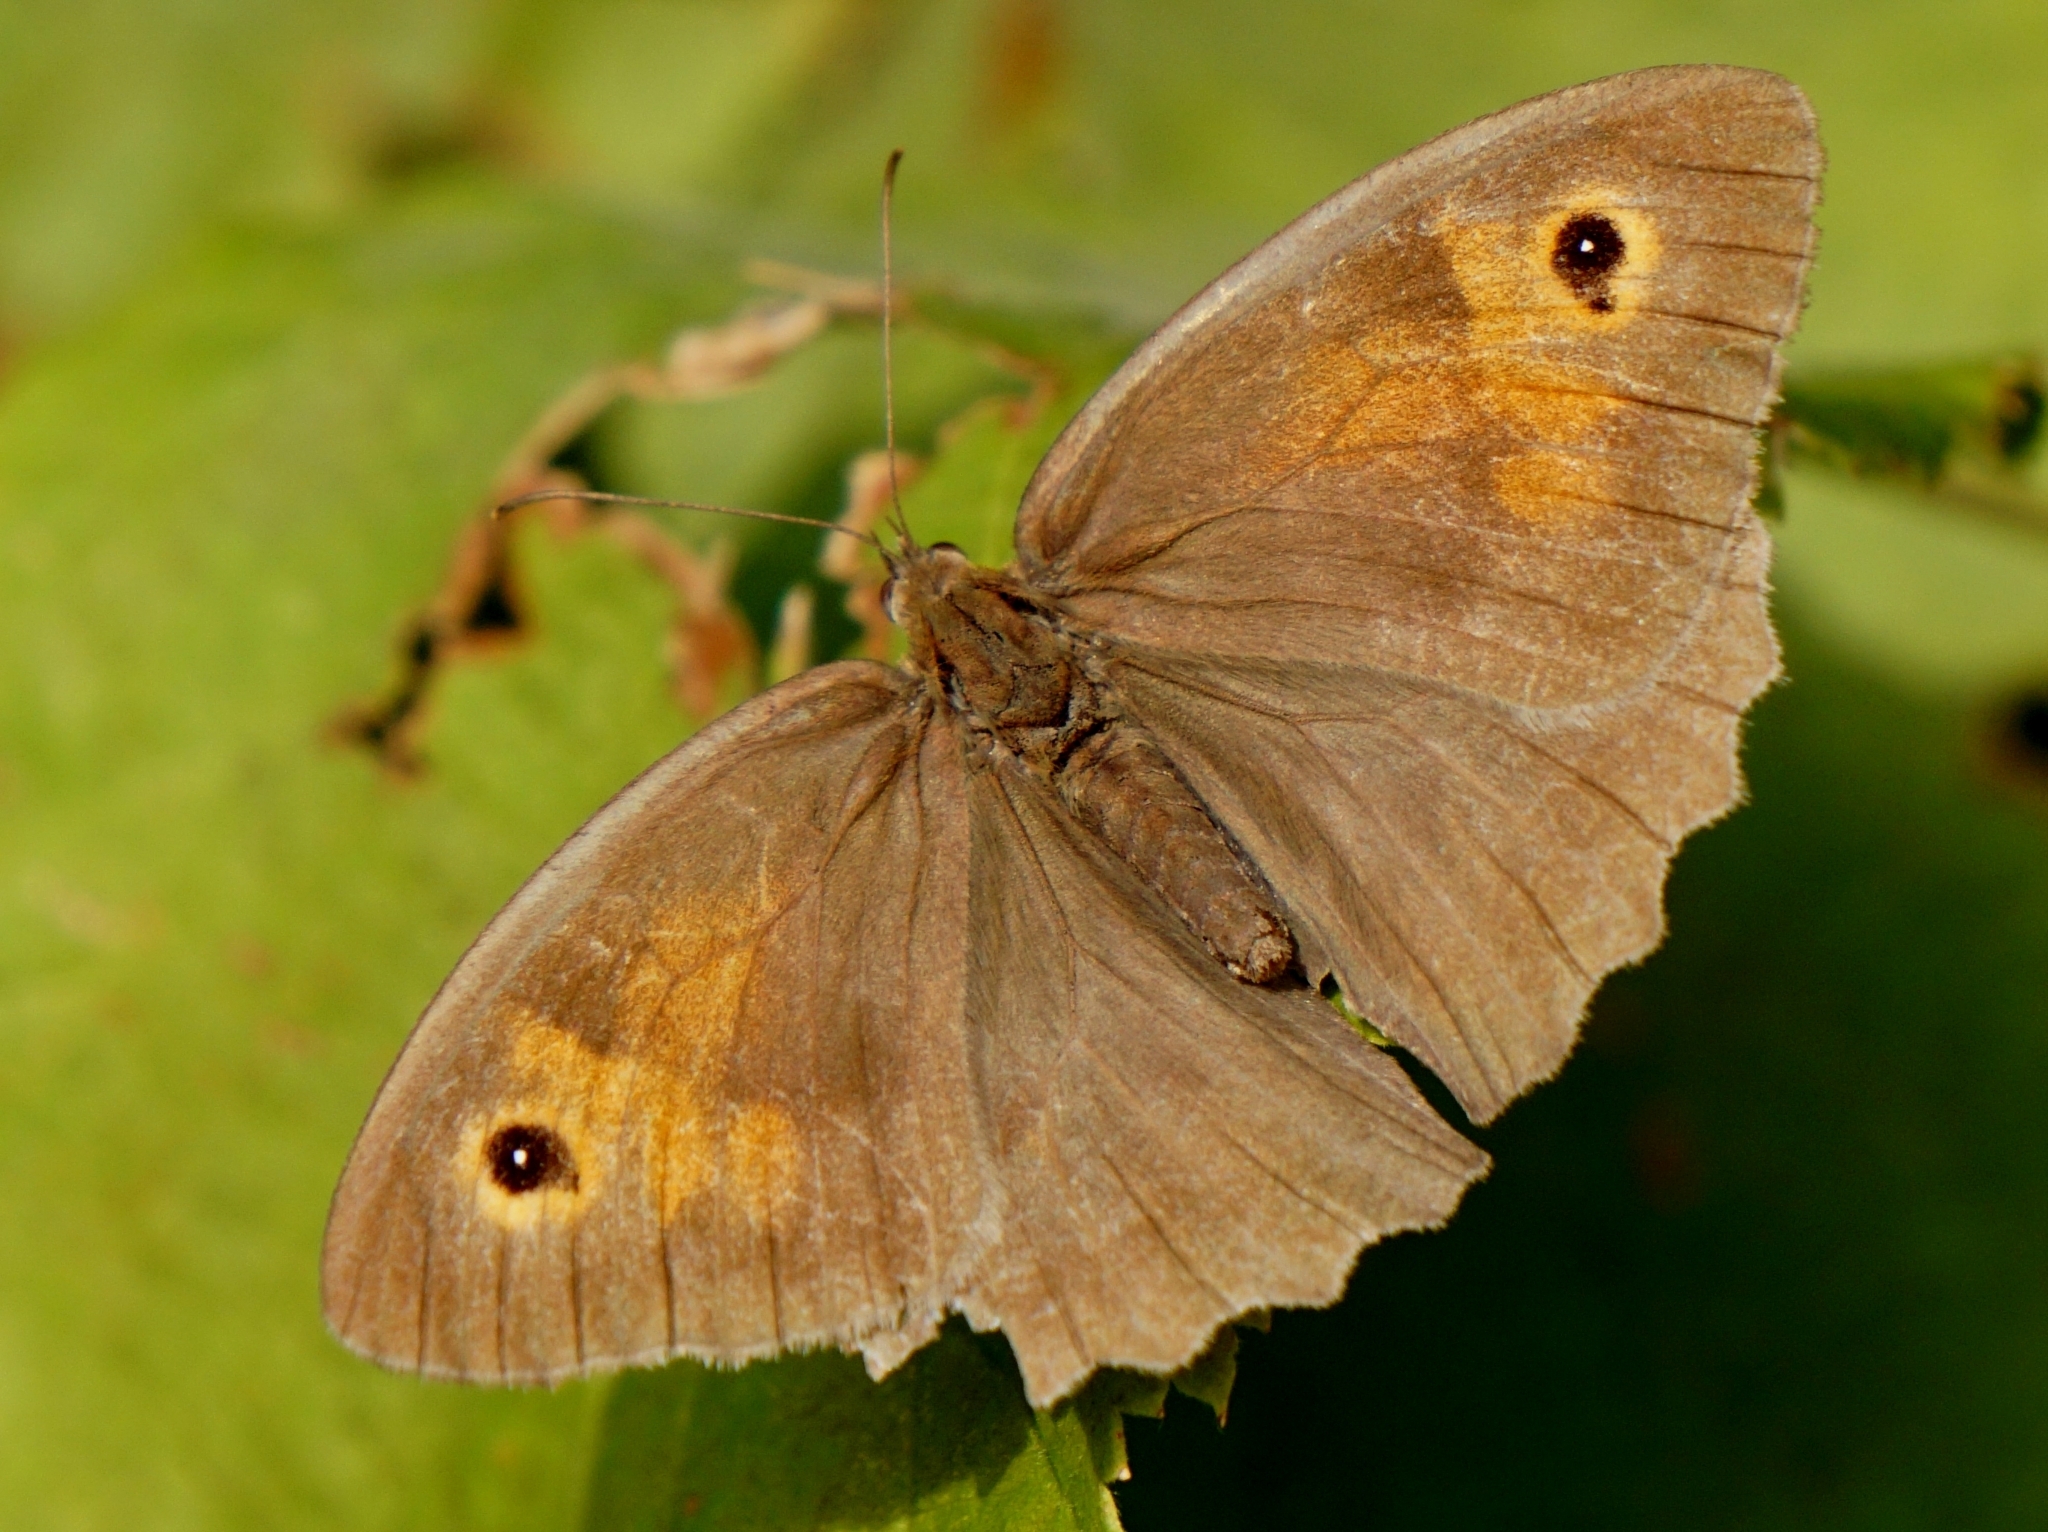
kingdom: Animalia
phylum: Arthropoda
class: Insecta
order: Lepidoptera
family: Nymphalidae
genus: Maniola
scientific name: Maniola jurtina
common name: Meadow brown
